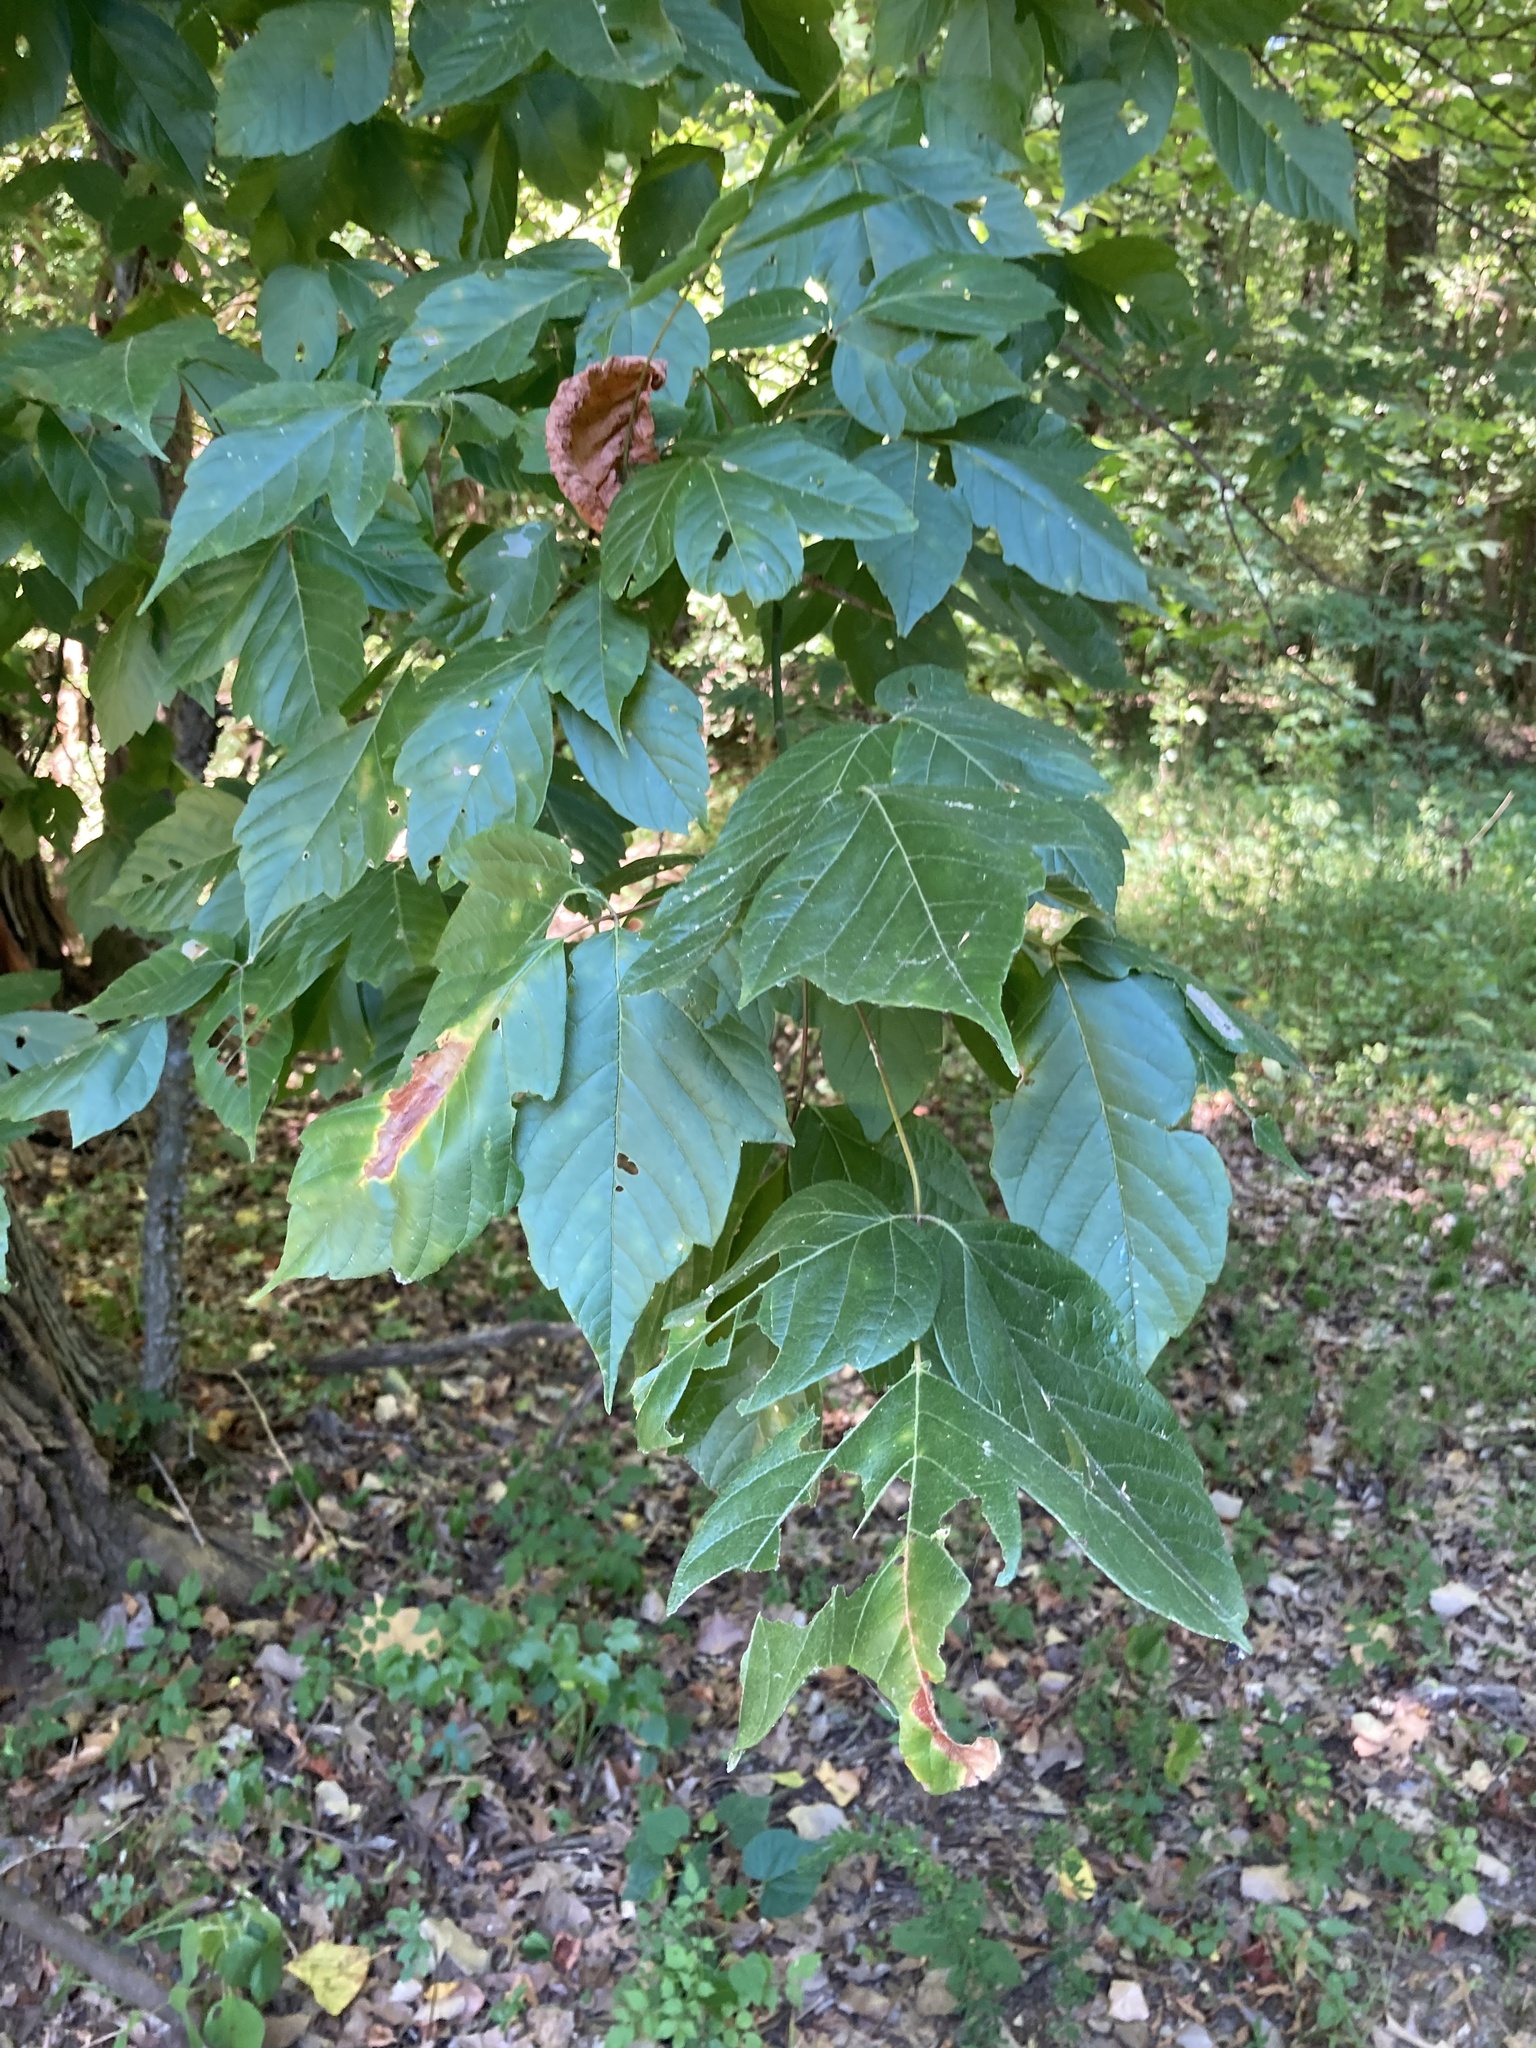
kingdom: Plantae
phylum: Tracheophyta
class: Magnoliopsida
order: Sapindales
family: Sapindaceae
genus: Acer
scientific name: Acer negundo
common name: Ashleaf maple
